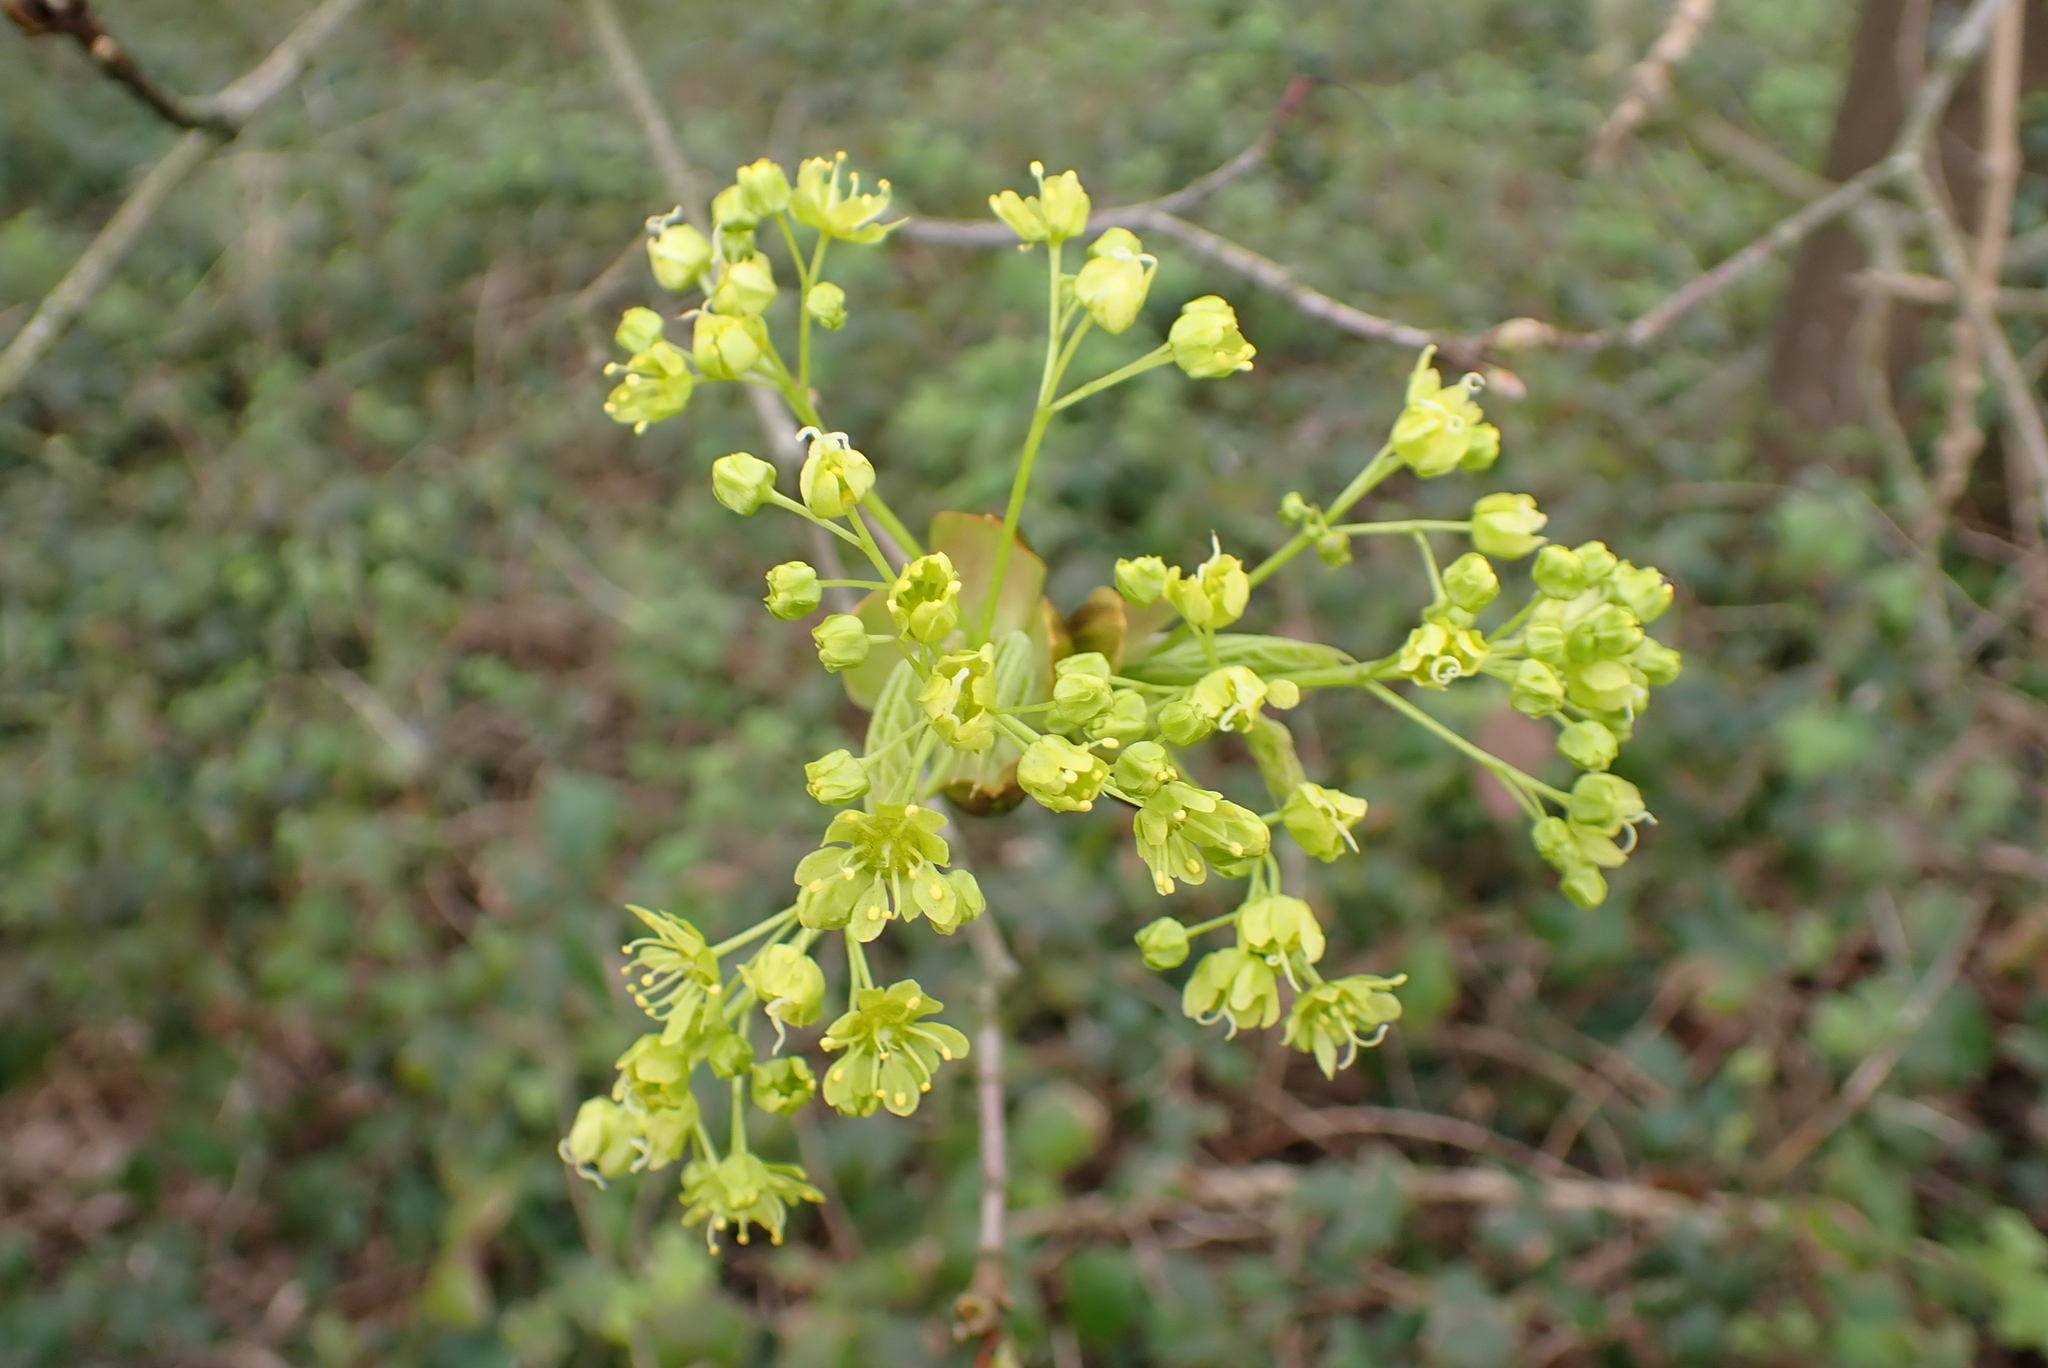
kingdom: Plantae
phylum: Tracheophyta
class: Magnoliopsida
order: Sapindales
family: Sapindaceae
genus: Acer
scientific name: Acer platanoides
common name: Norway maple
